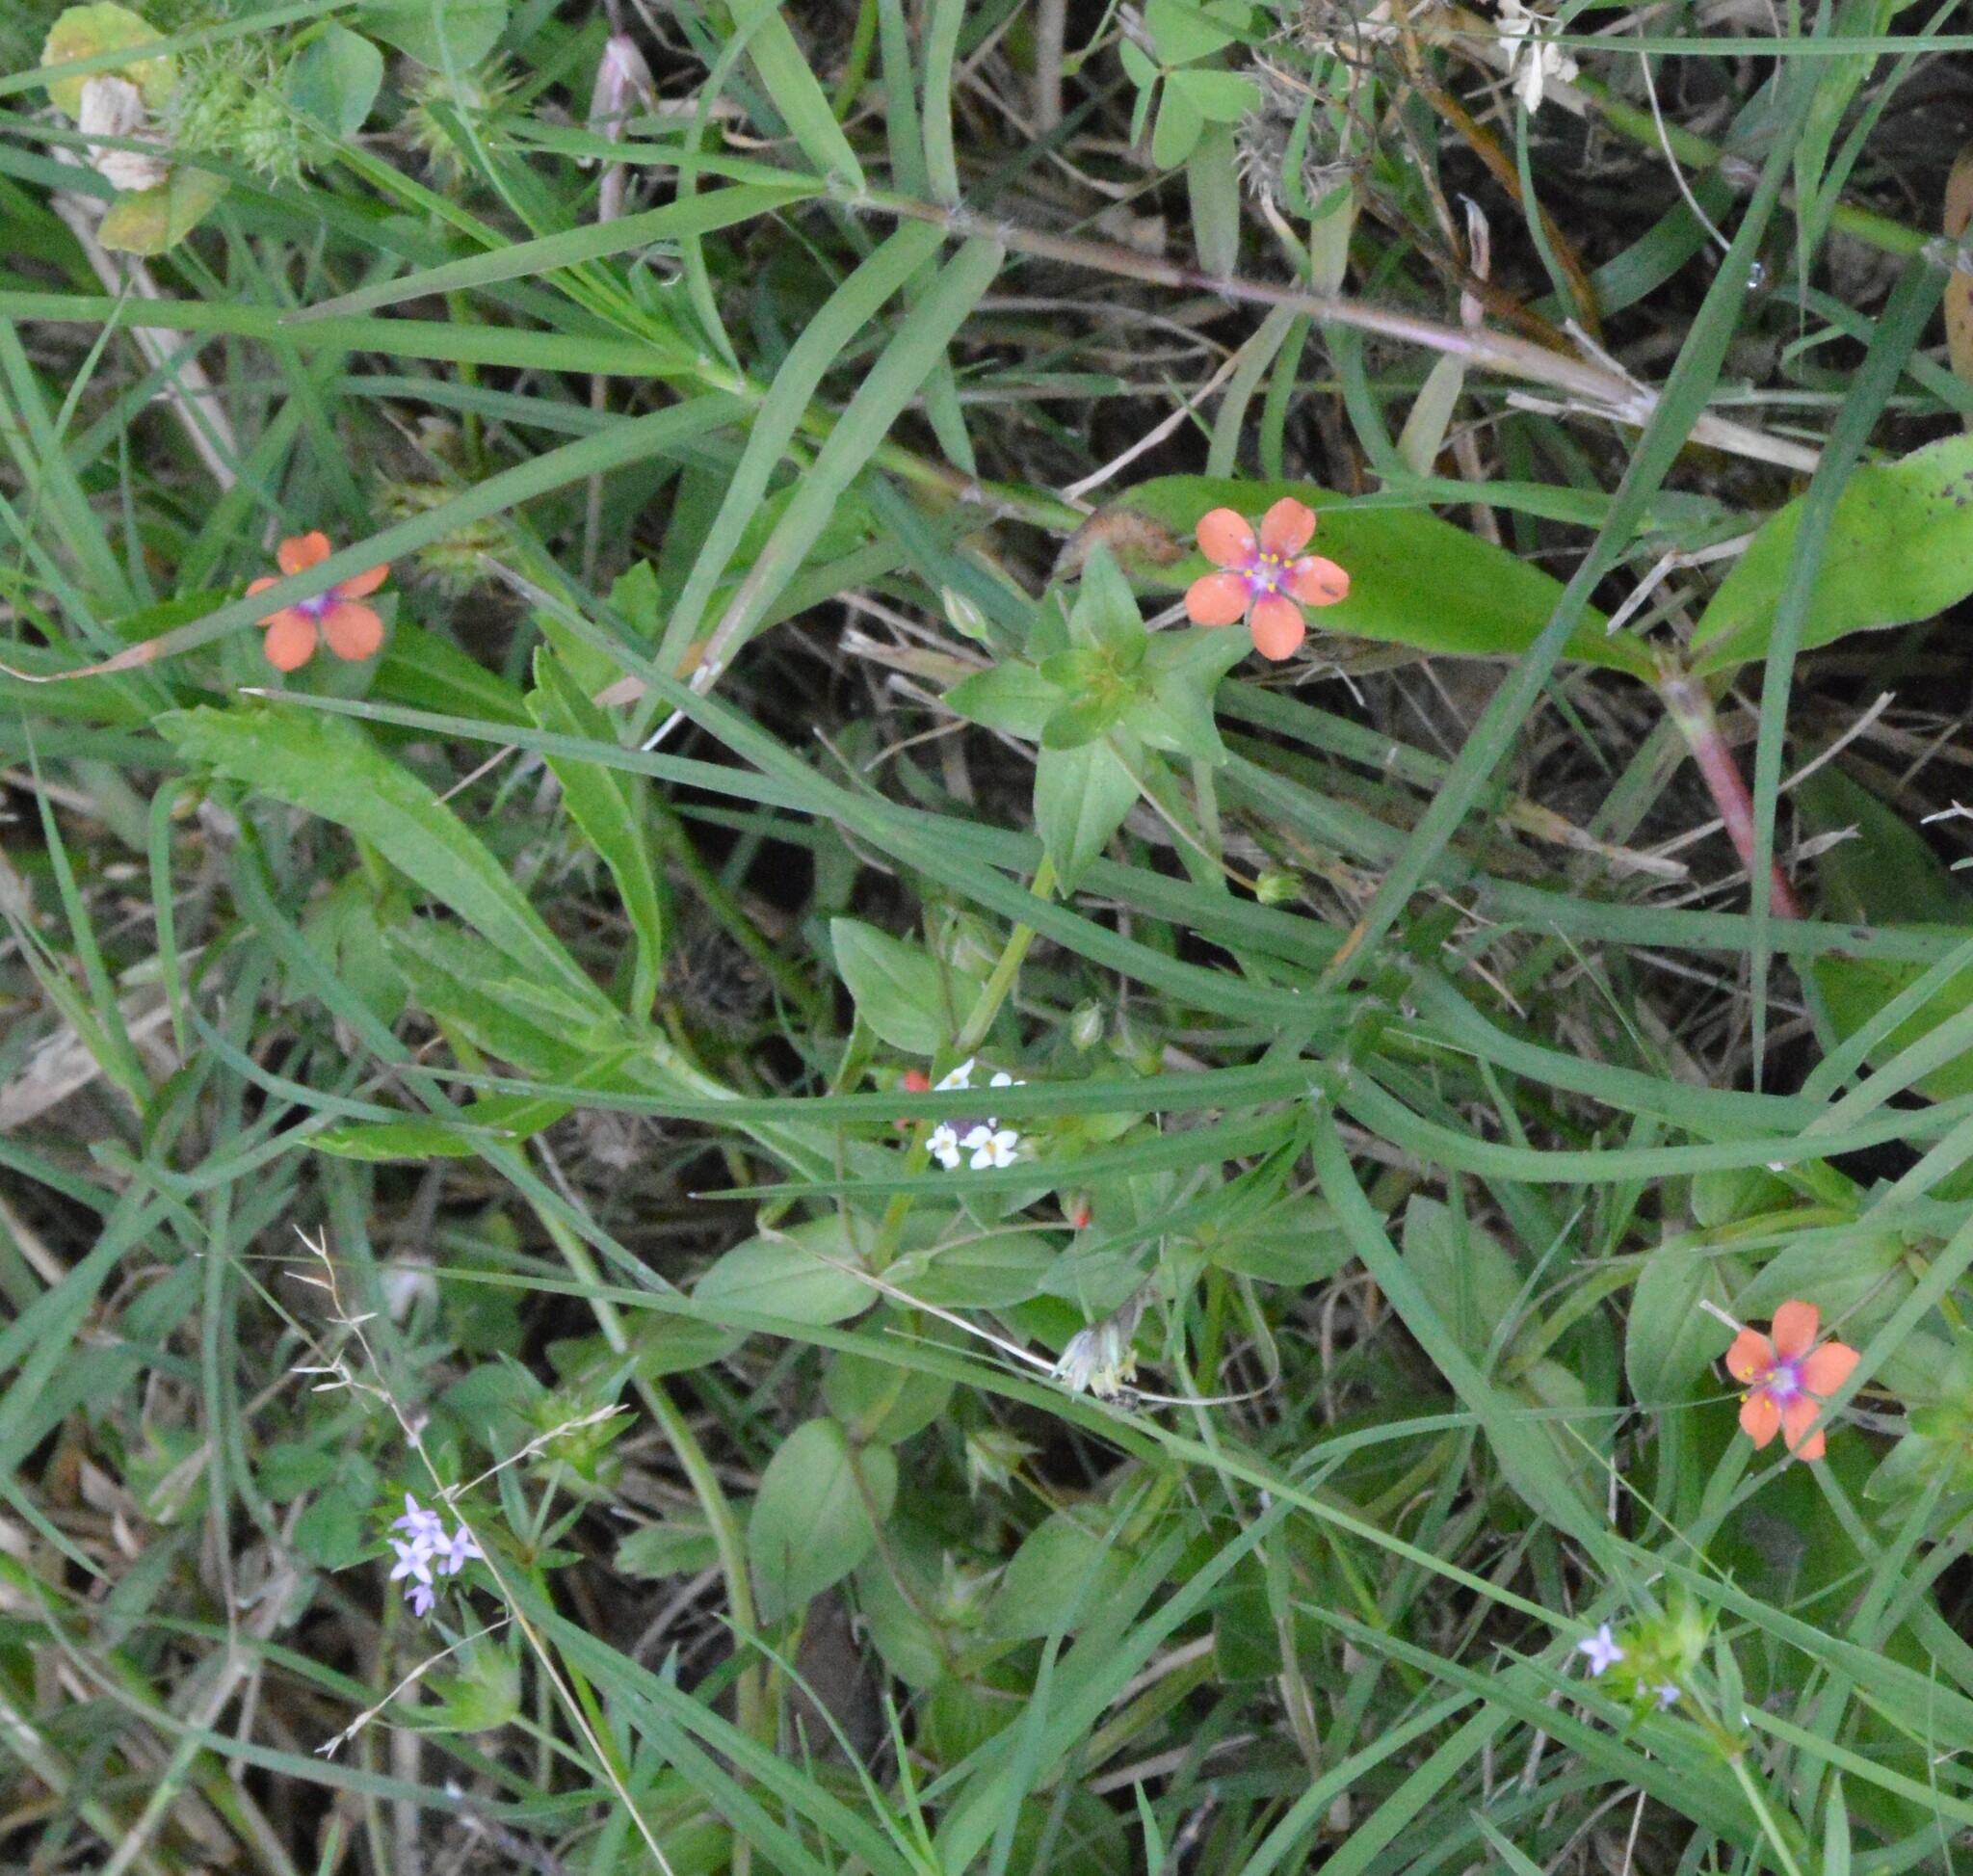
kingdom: Plantae
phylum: Tracheophyta
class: Magnoliopsida
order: Ericales
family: Primulaceae
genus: Lysimachia
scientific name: Lysimachia arvensis
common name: Scarlet pimpernel
